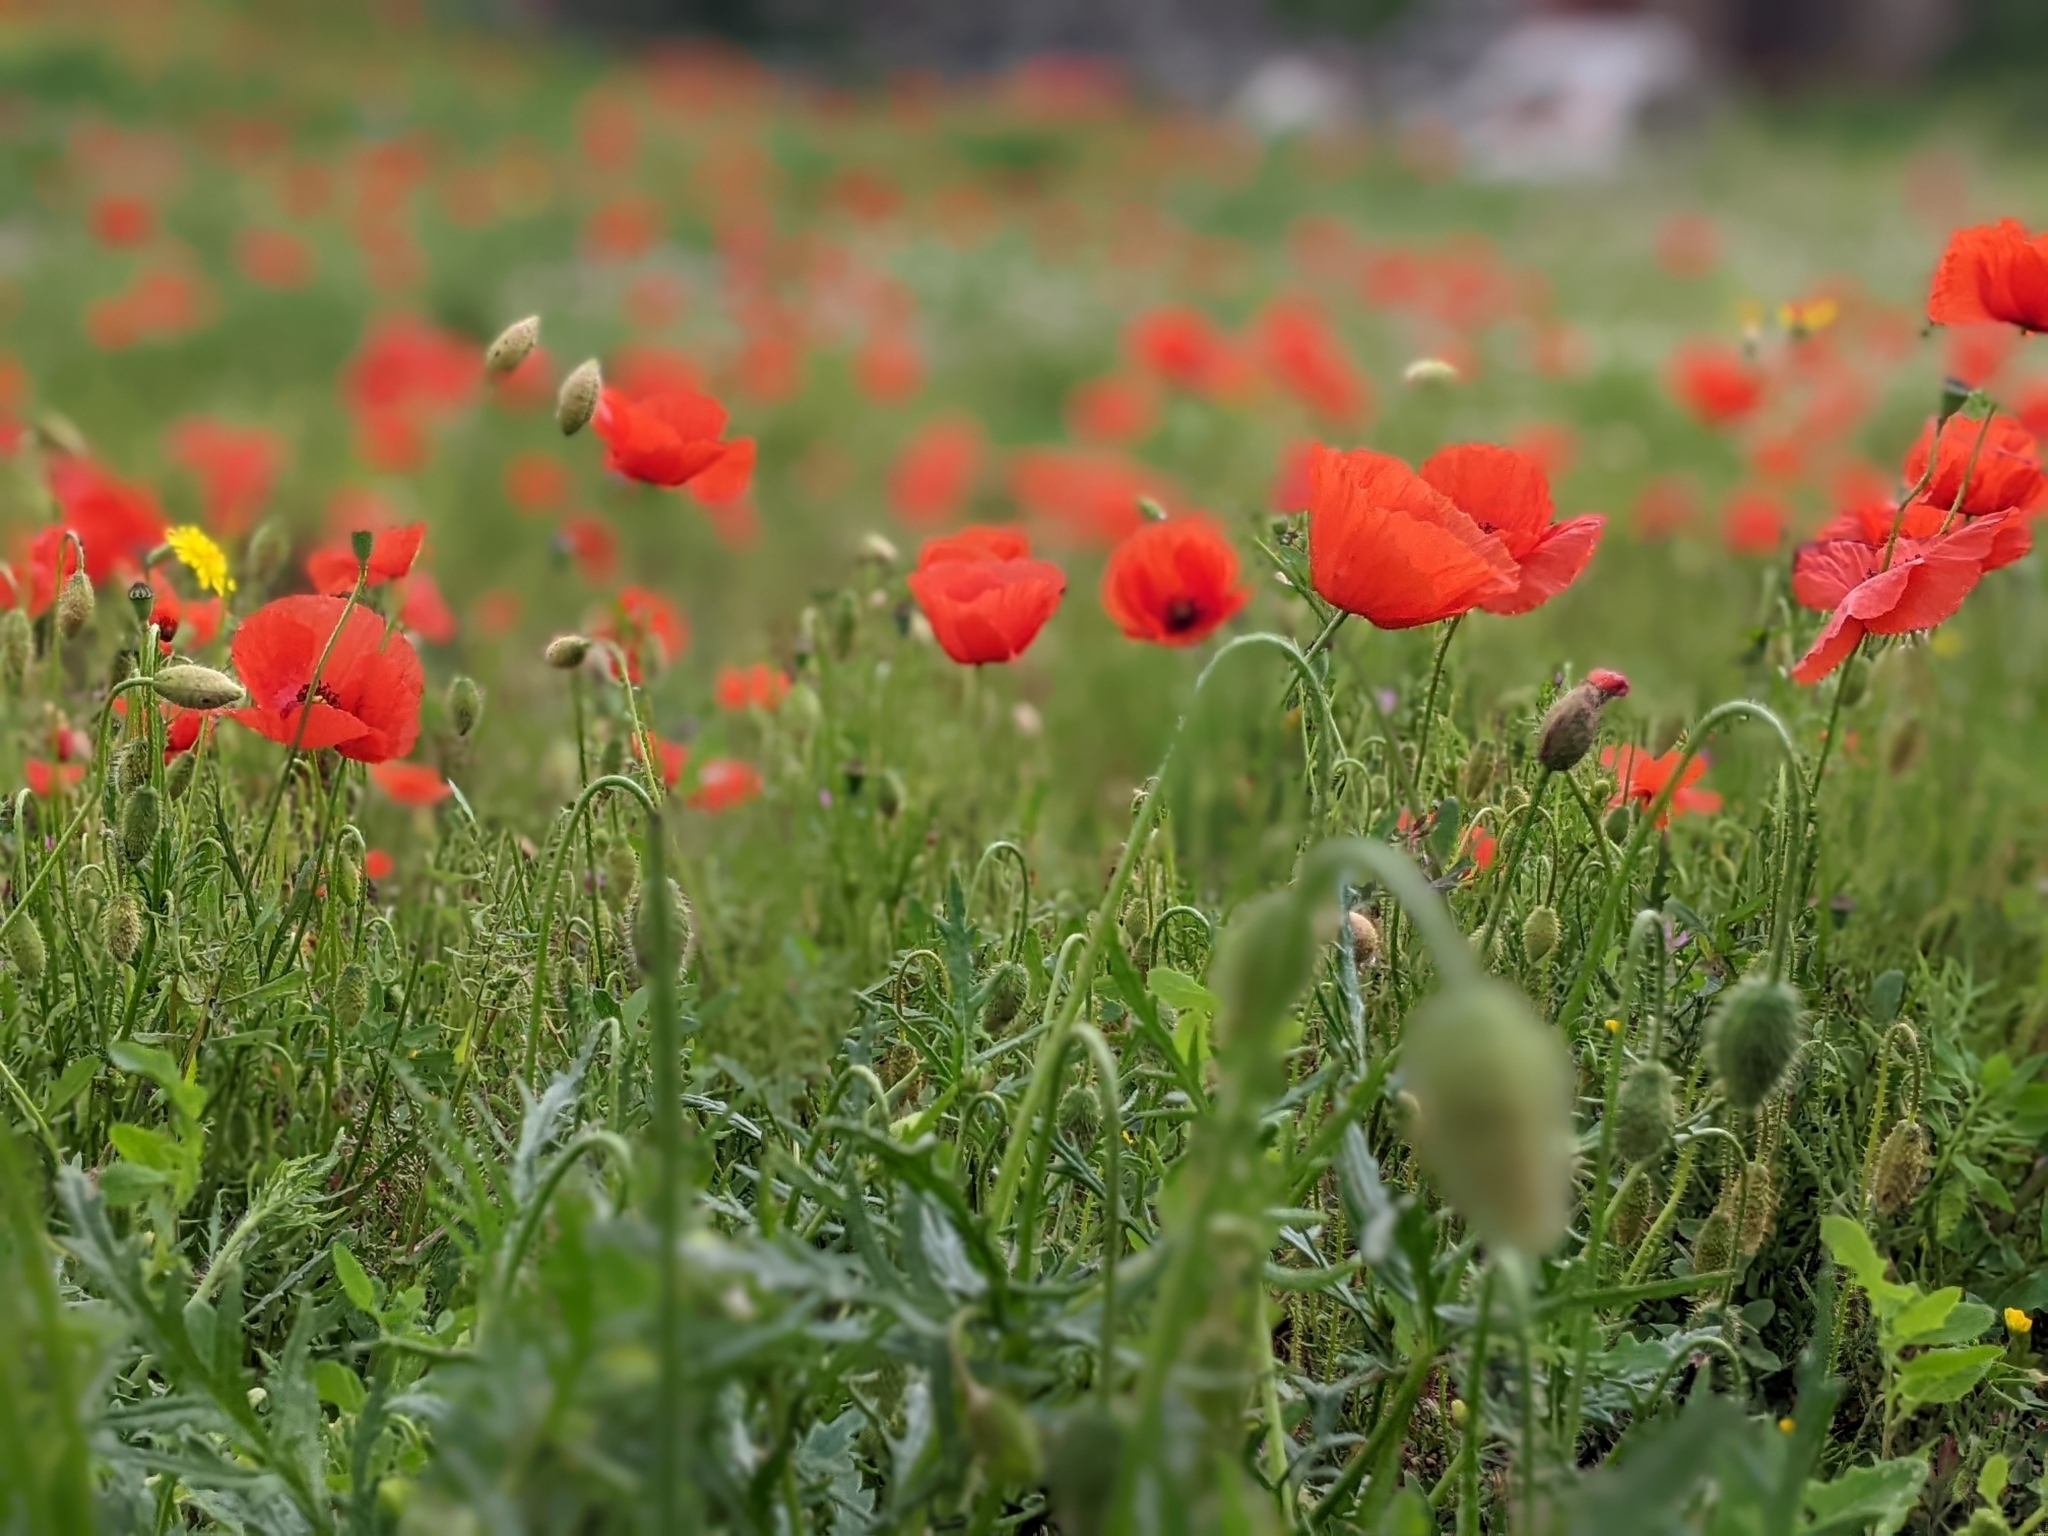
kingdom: Plantae
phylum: Tracheophyta
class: Magnoliopsida
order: Ranunculales
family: Papaveraceae
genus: Papaver
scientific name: Papaver rhoeas
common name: Corn poppy
